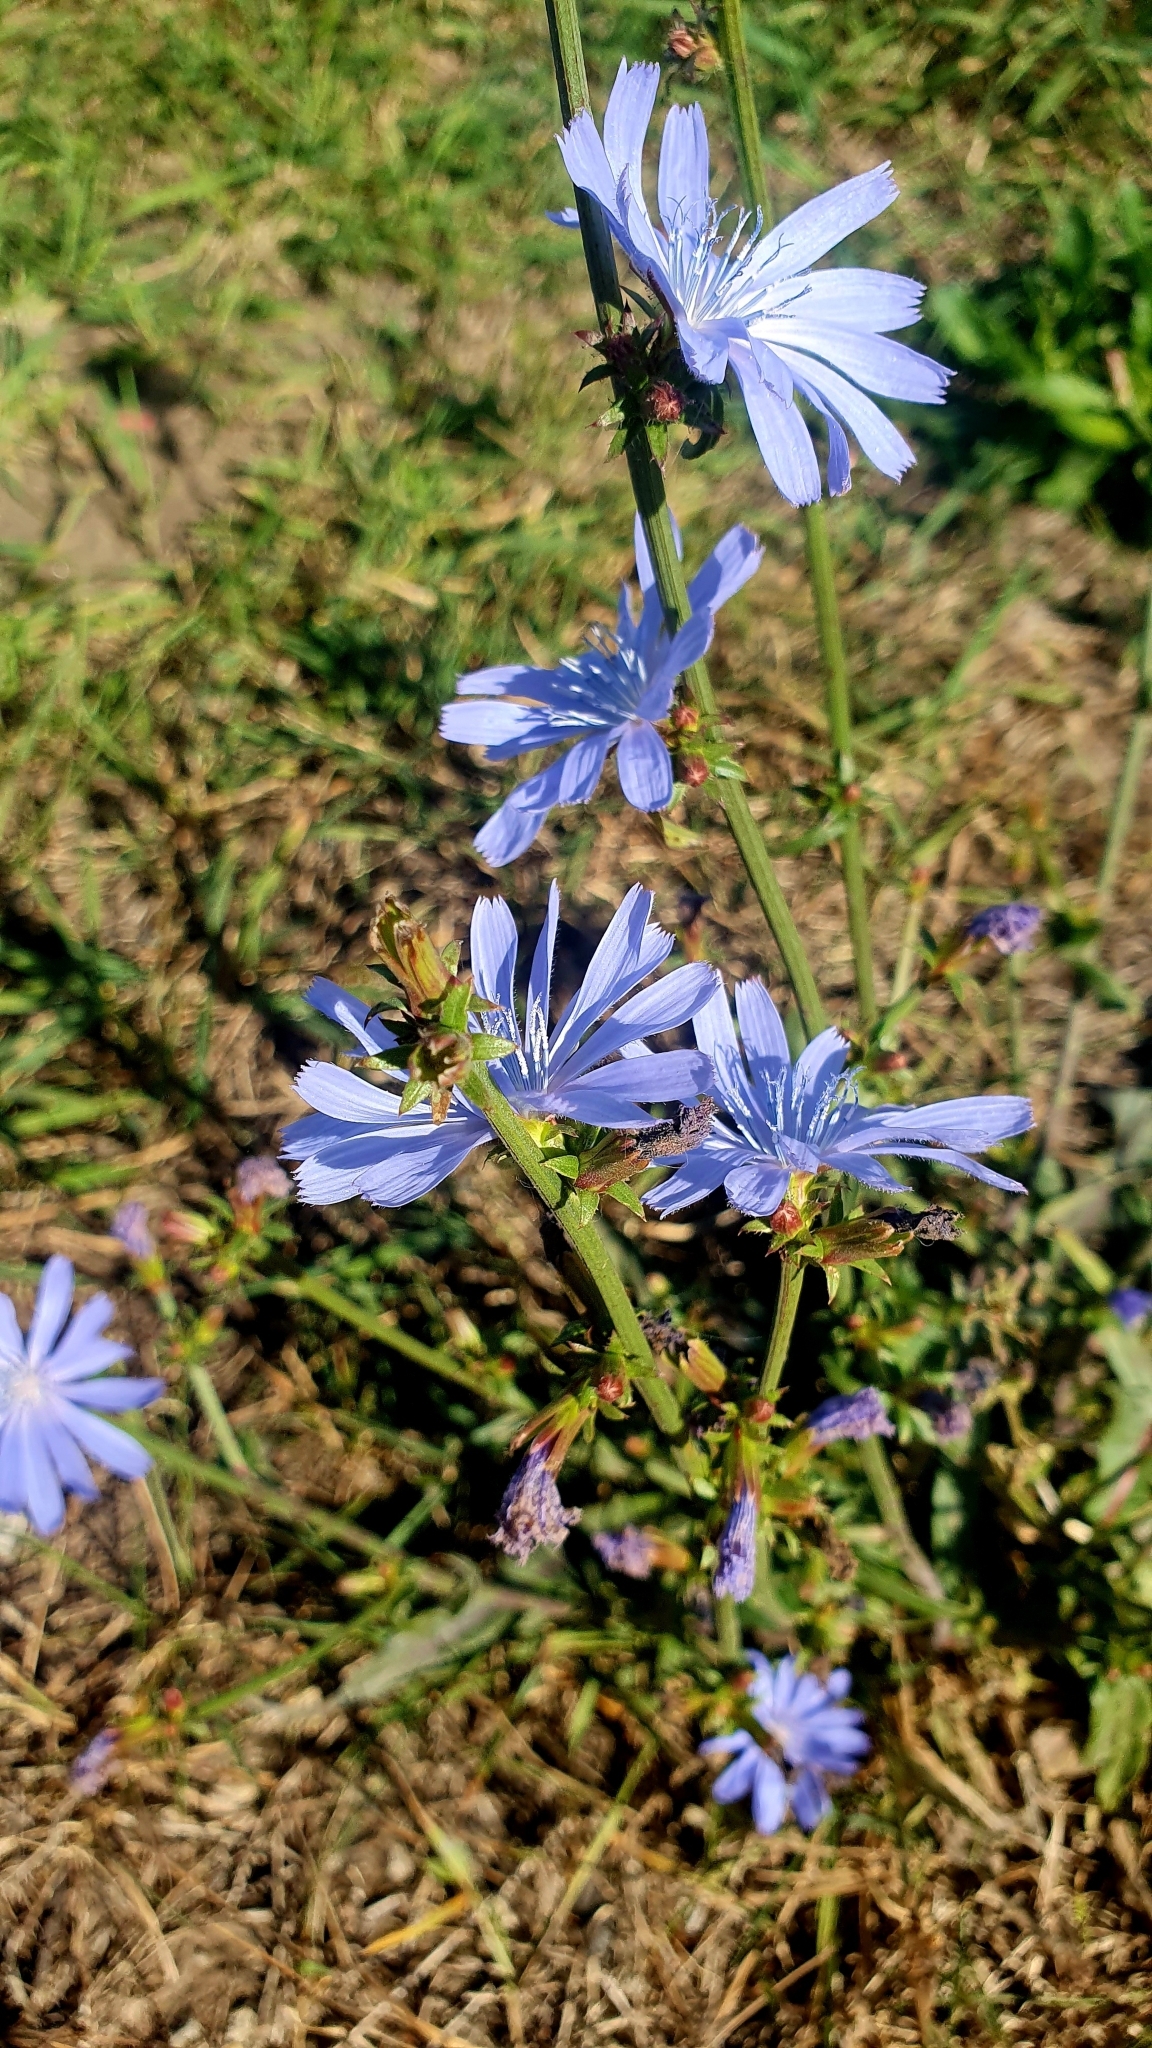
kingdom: Plantae
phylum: Tracheophyta
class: Magnoliopsida
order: Asterales
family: Asteraceae
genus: Cichorium
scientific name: Cichorium intybus
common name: Chicory
